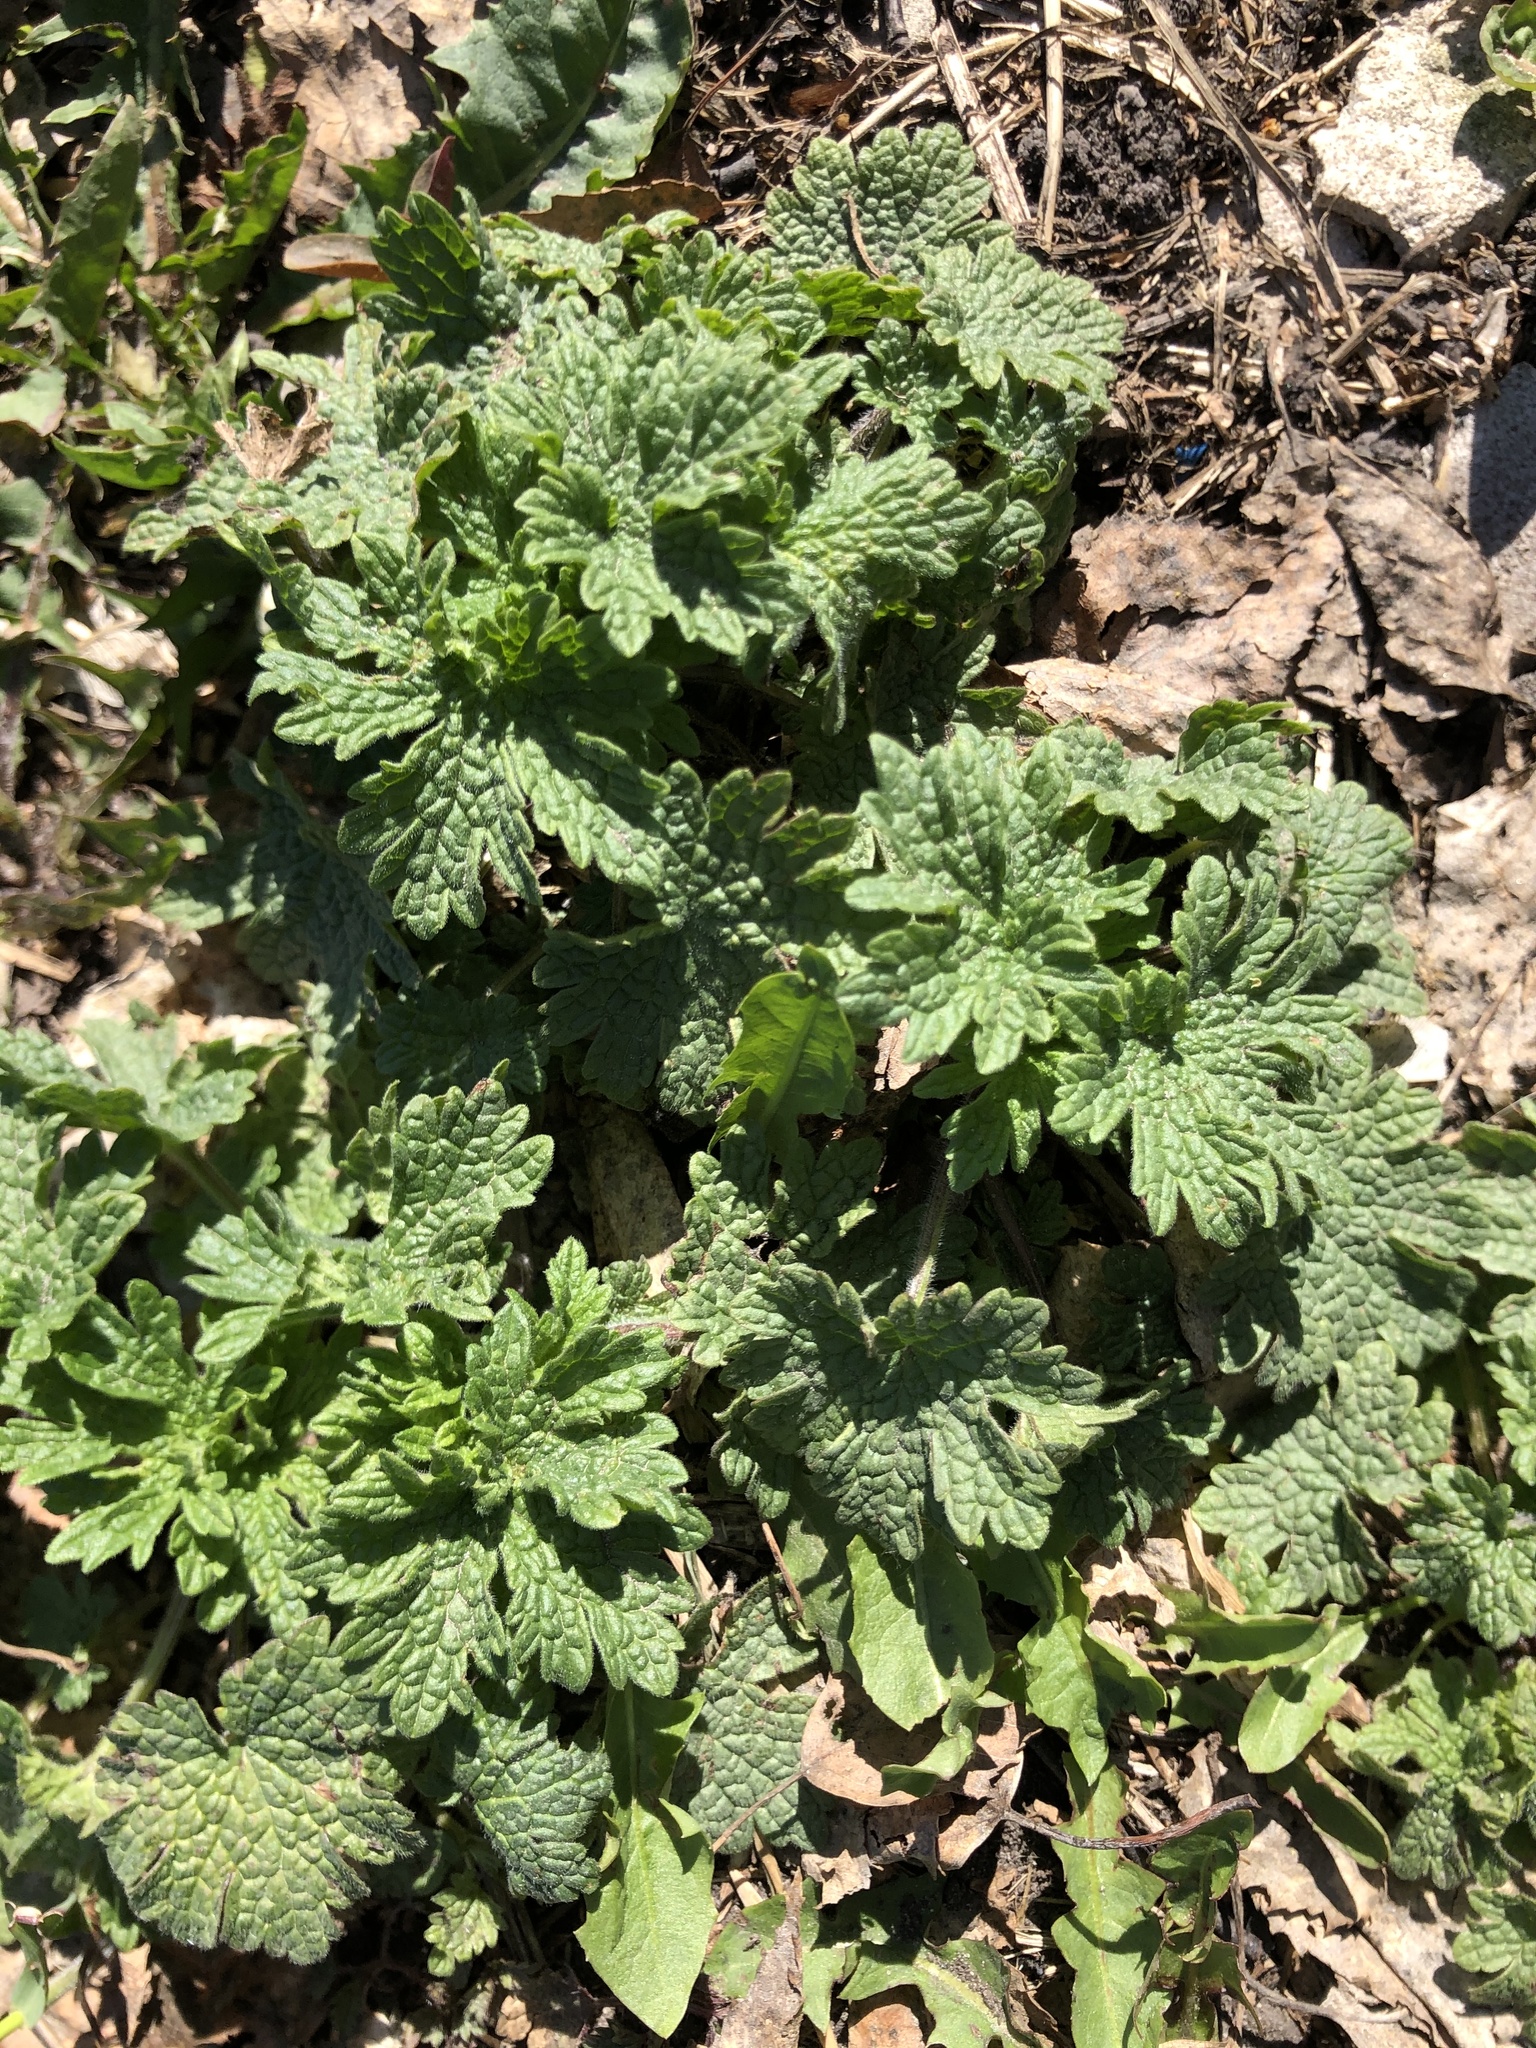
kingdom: Plantae
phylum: Tracheophyta
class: Magnoliopsida
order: Lamiales
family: Lamiaceae
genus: Leonurus
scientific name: Leonurus quinquelobatus
